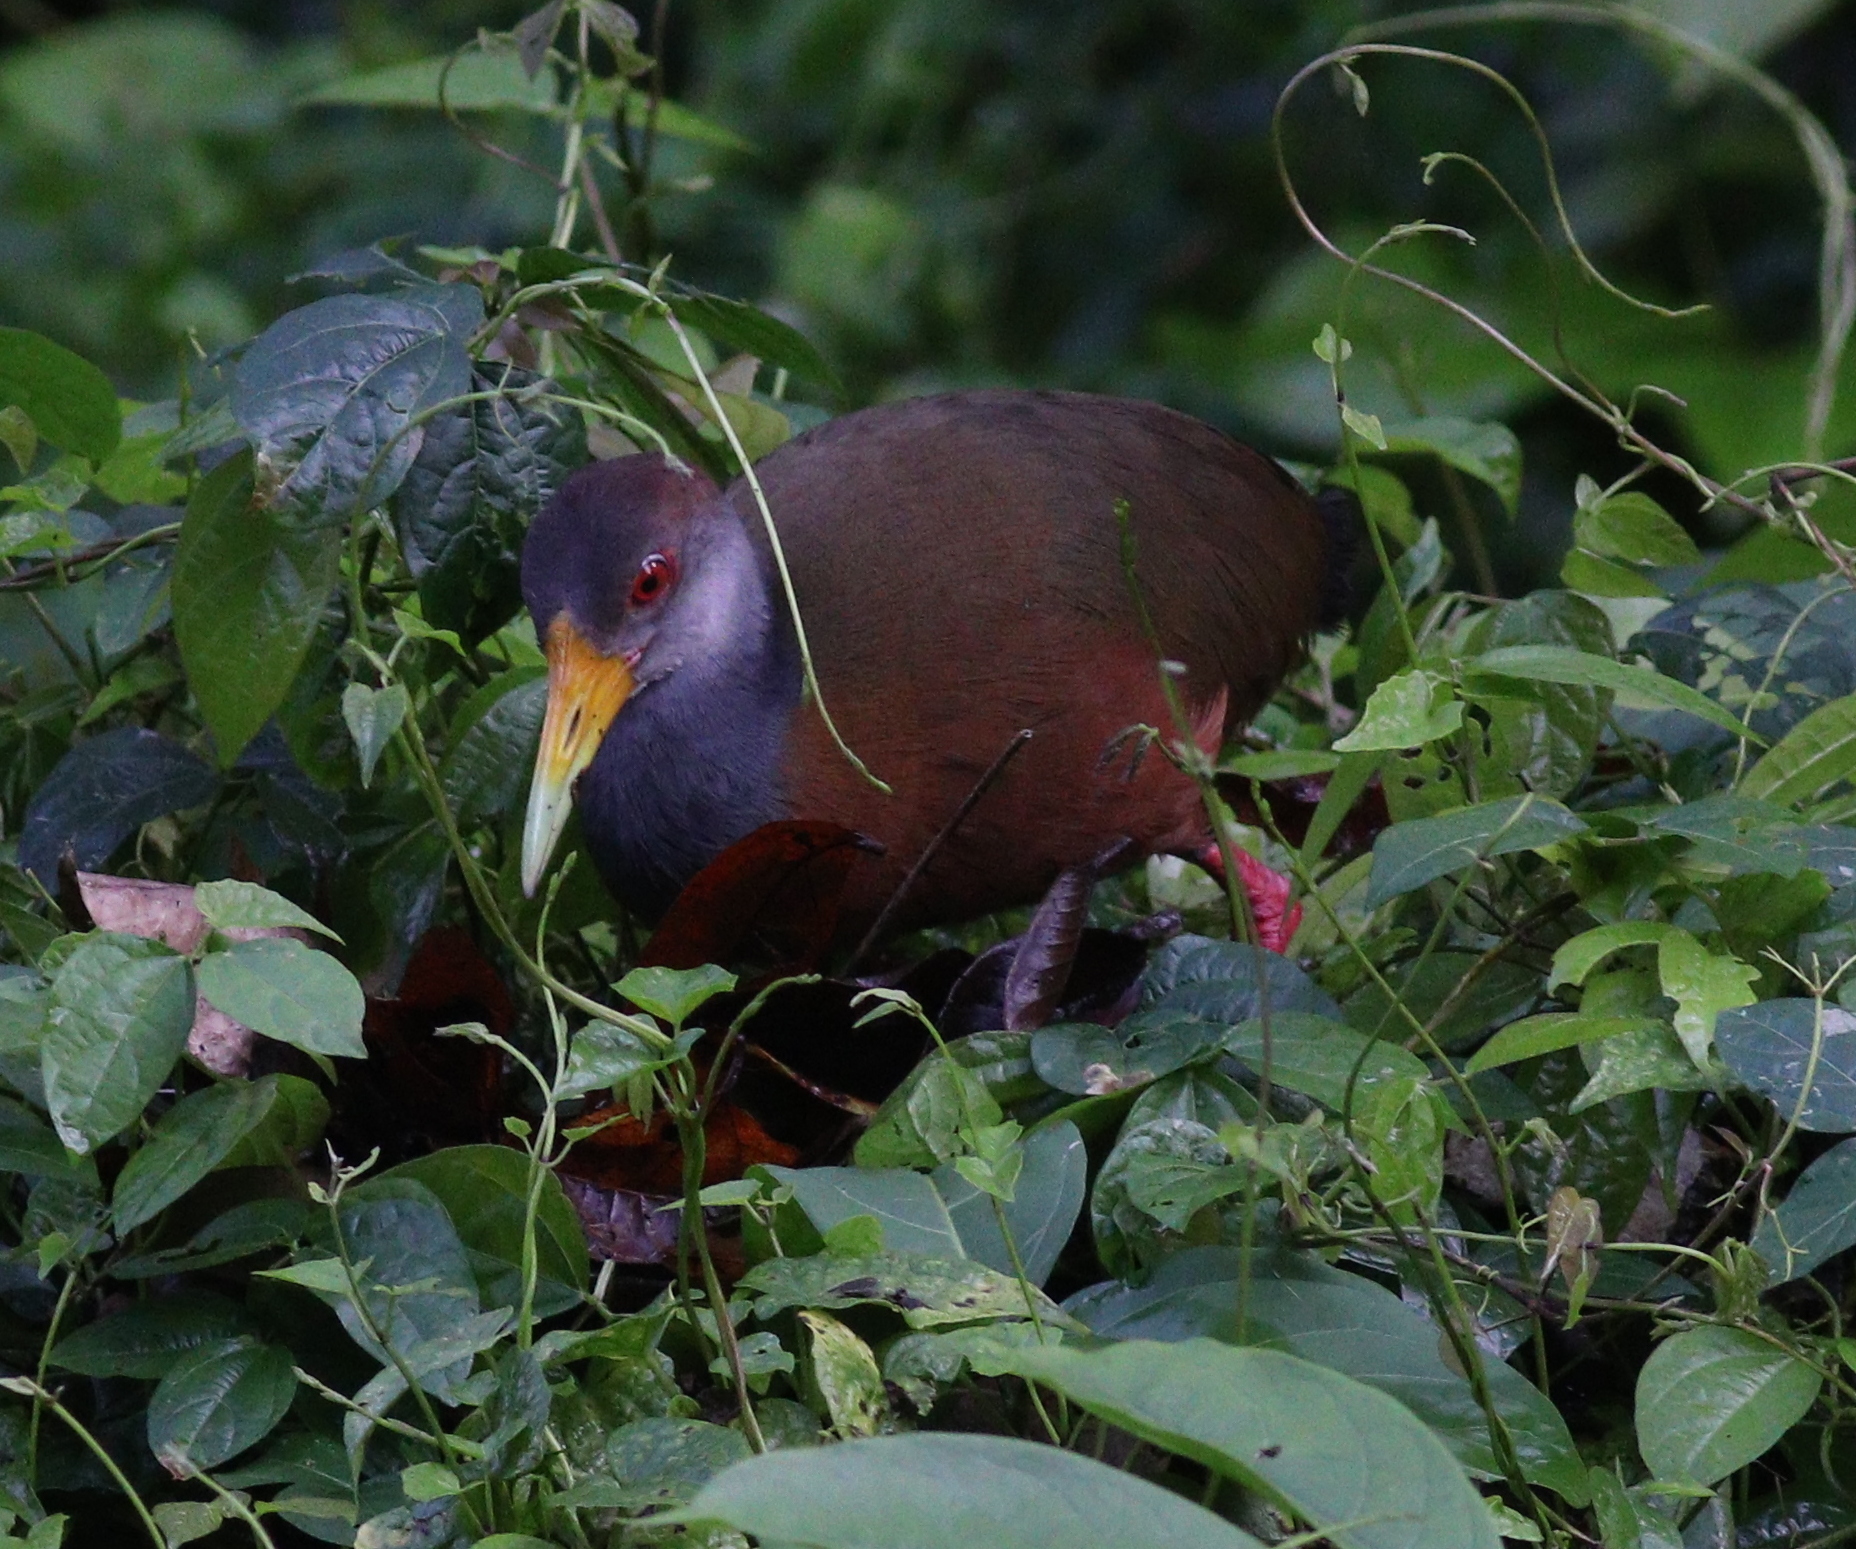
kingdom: Animalia
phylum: Chordata
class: Aves
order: Gruiformes
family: Rallidae
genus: Aramides
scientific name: Aramides albiventris
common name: Russet-naped wood-rail
